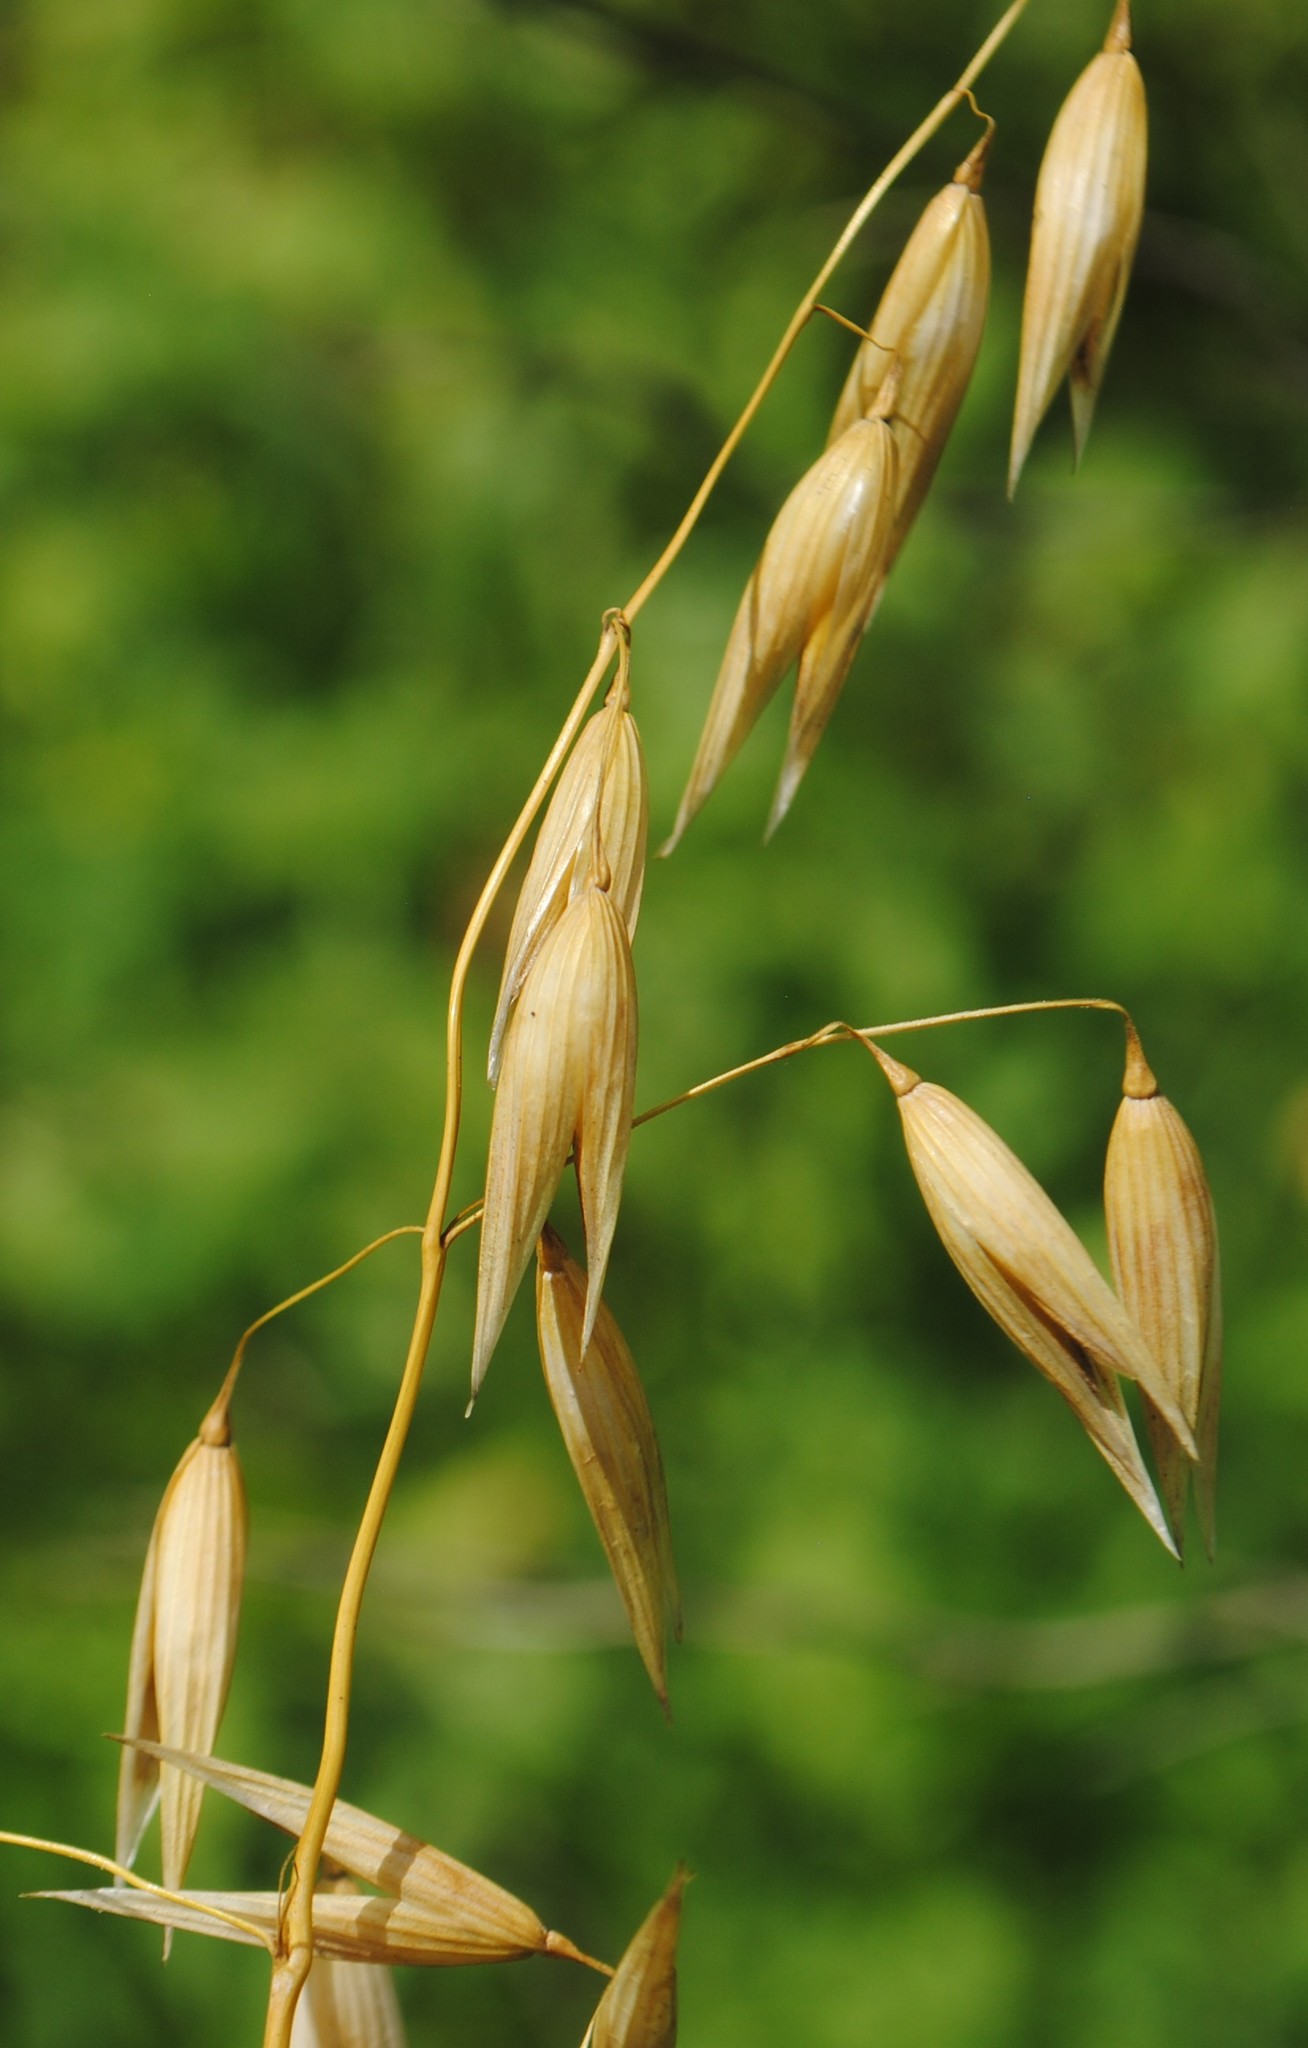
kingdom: Plantae
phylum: Tracheophyta
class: Liliopsida
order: Poales
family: Poaceae
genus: Avena
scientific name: Avena sativa
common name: Oat
